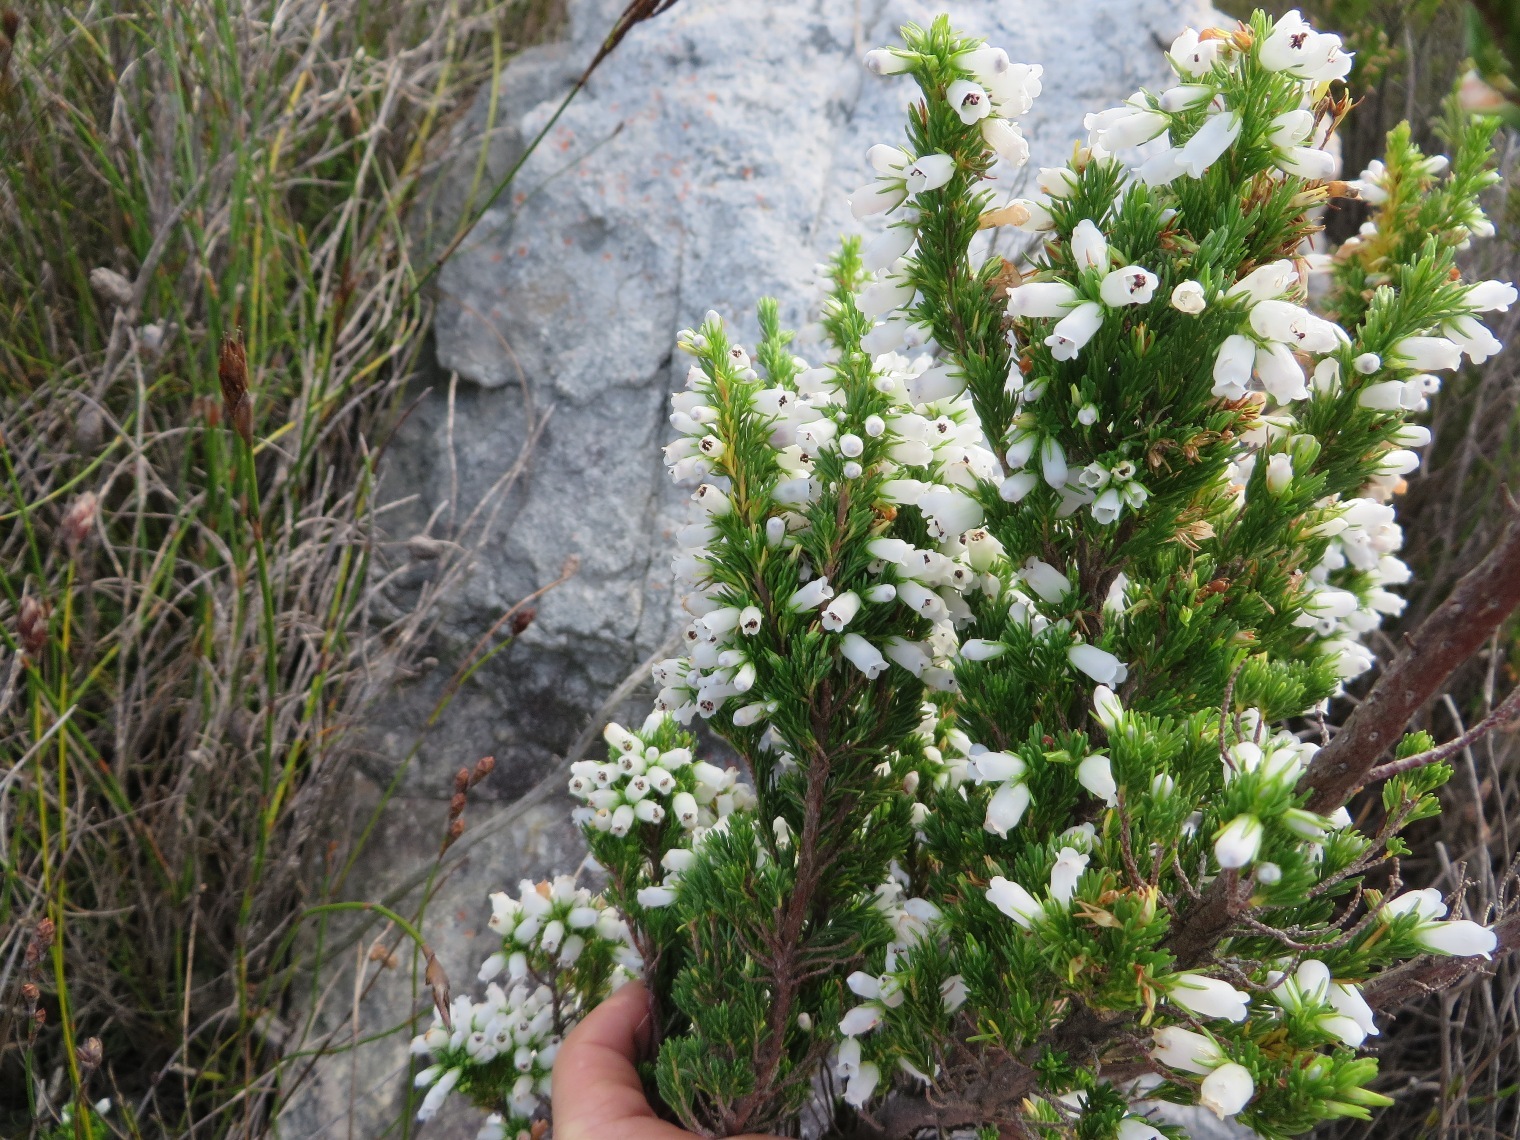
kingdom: Plantae
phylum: Tracheophyta
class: Magnoliopsida
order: Ericales
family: Ericaceae
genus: Erica
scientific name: Erica sitiens
